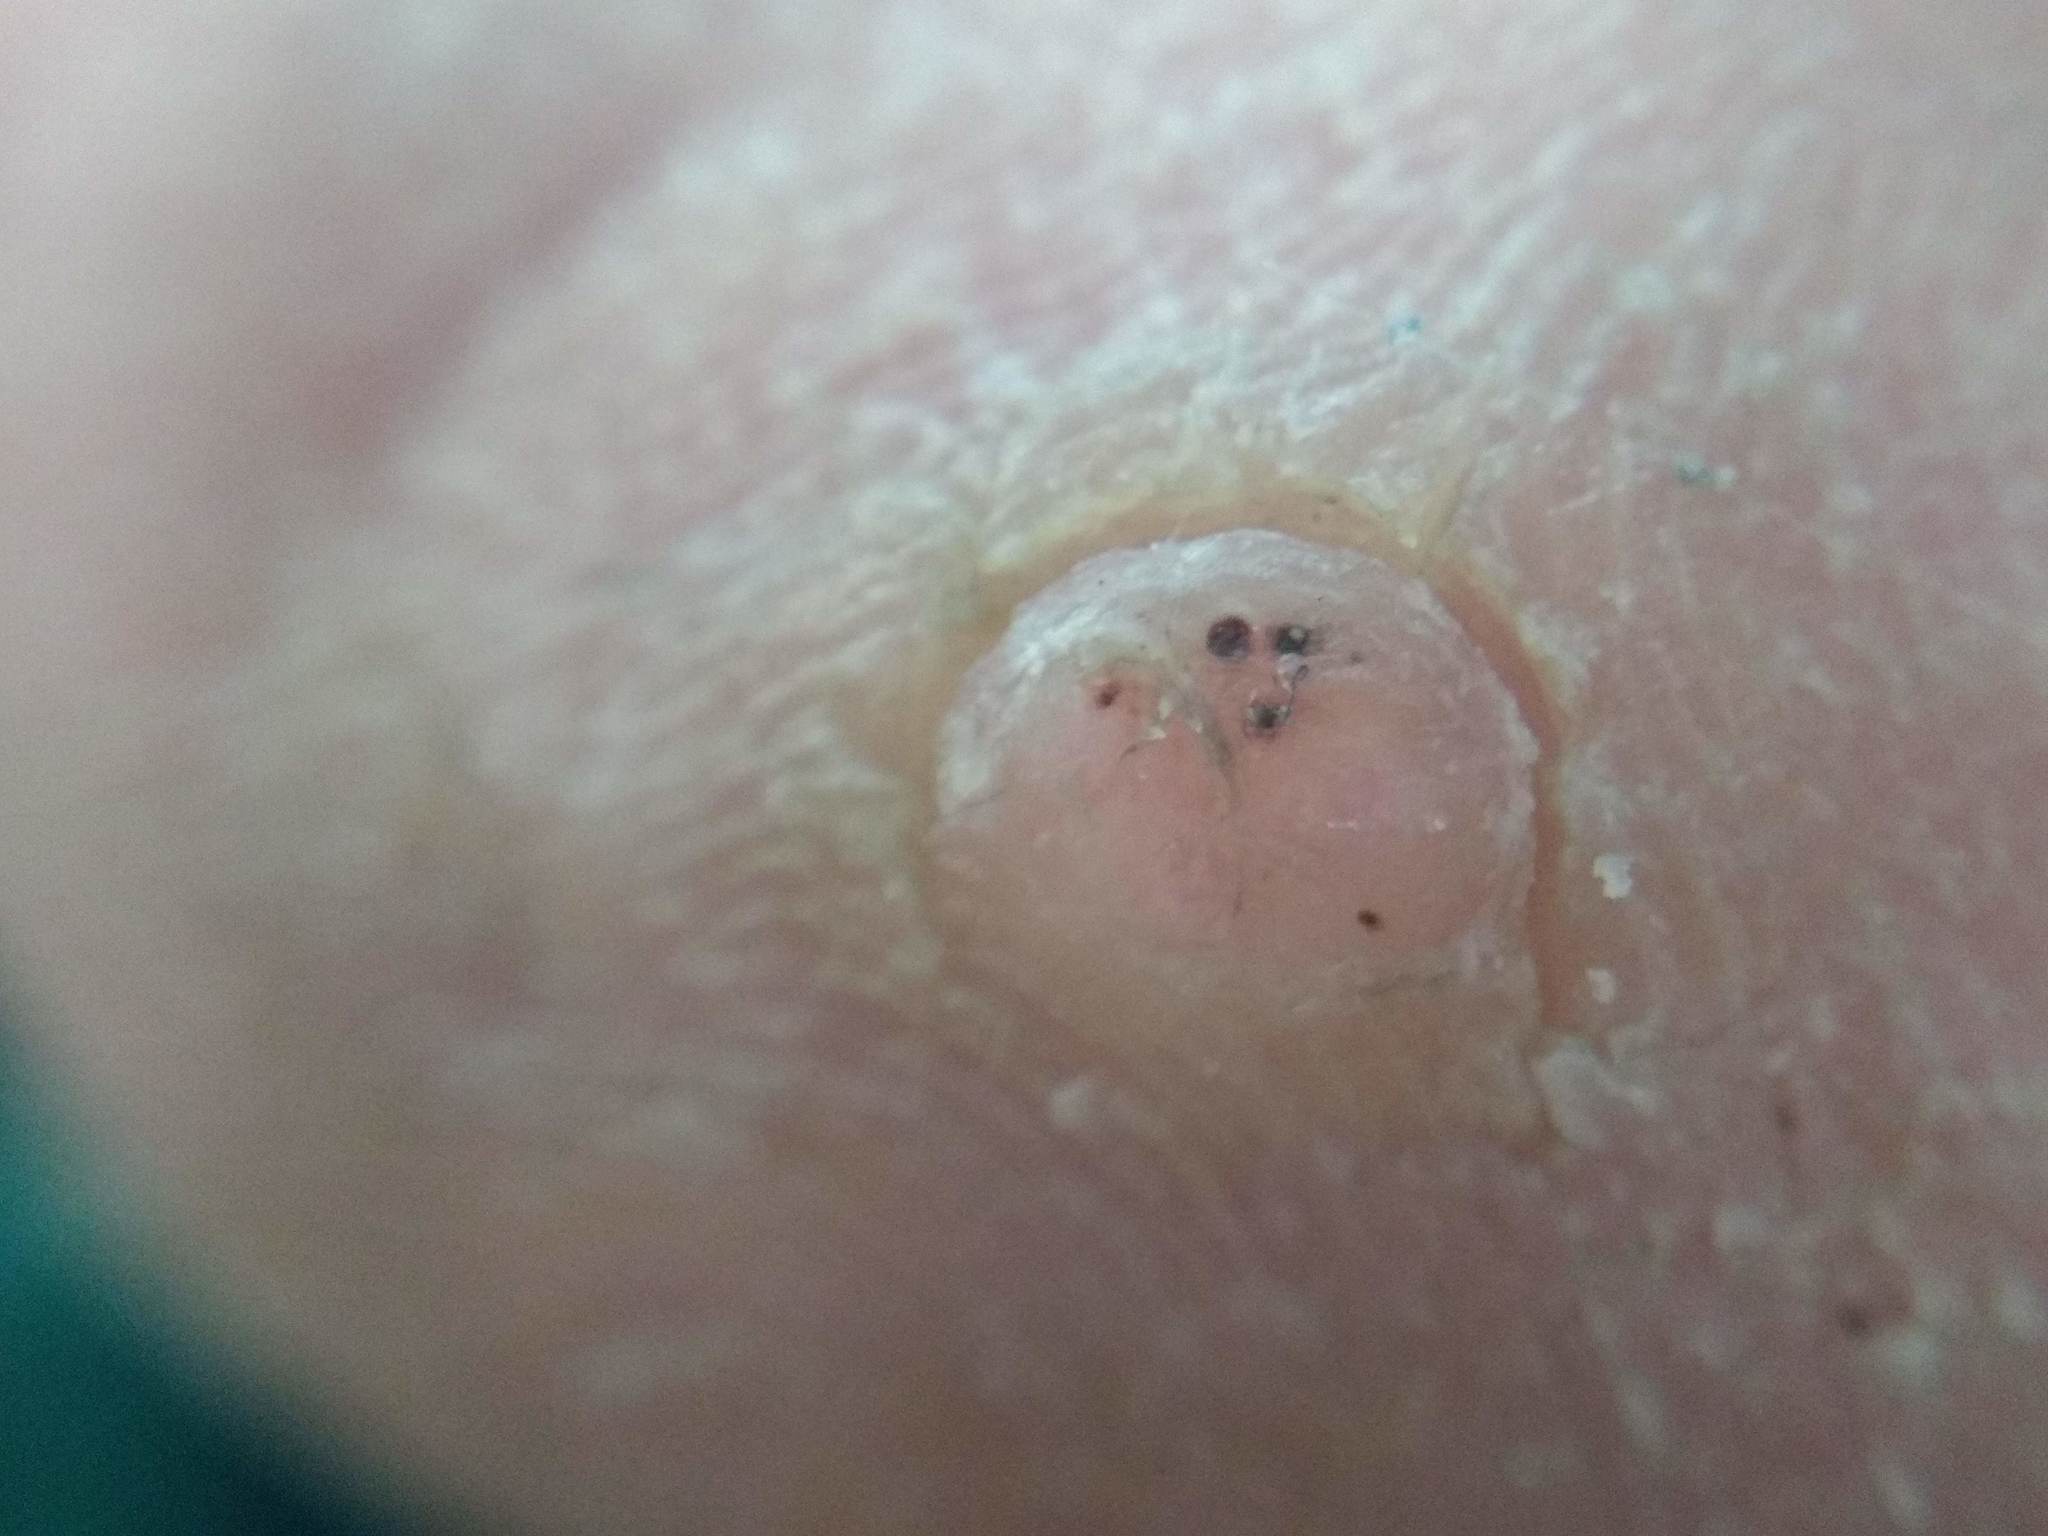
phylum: Cossaviricota
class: Papovaviricetes
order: Zurhausenvirales
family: Papillomaviridae
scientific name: Papillomaviridae
